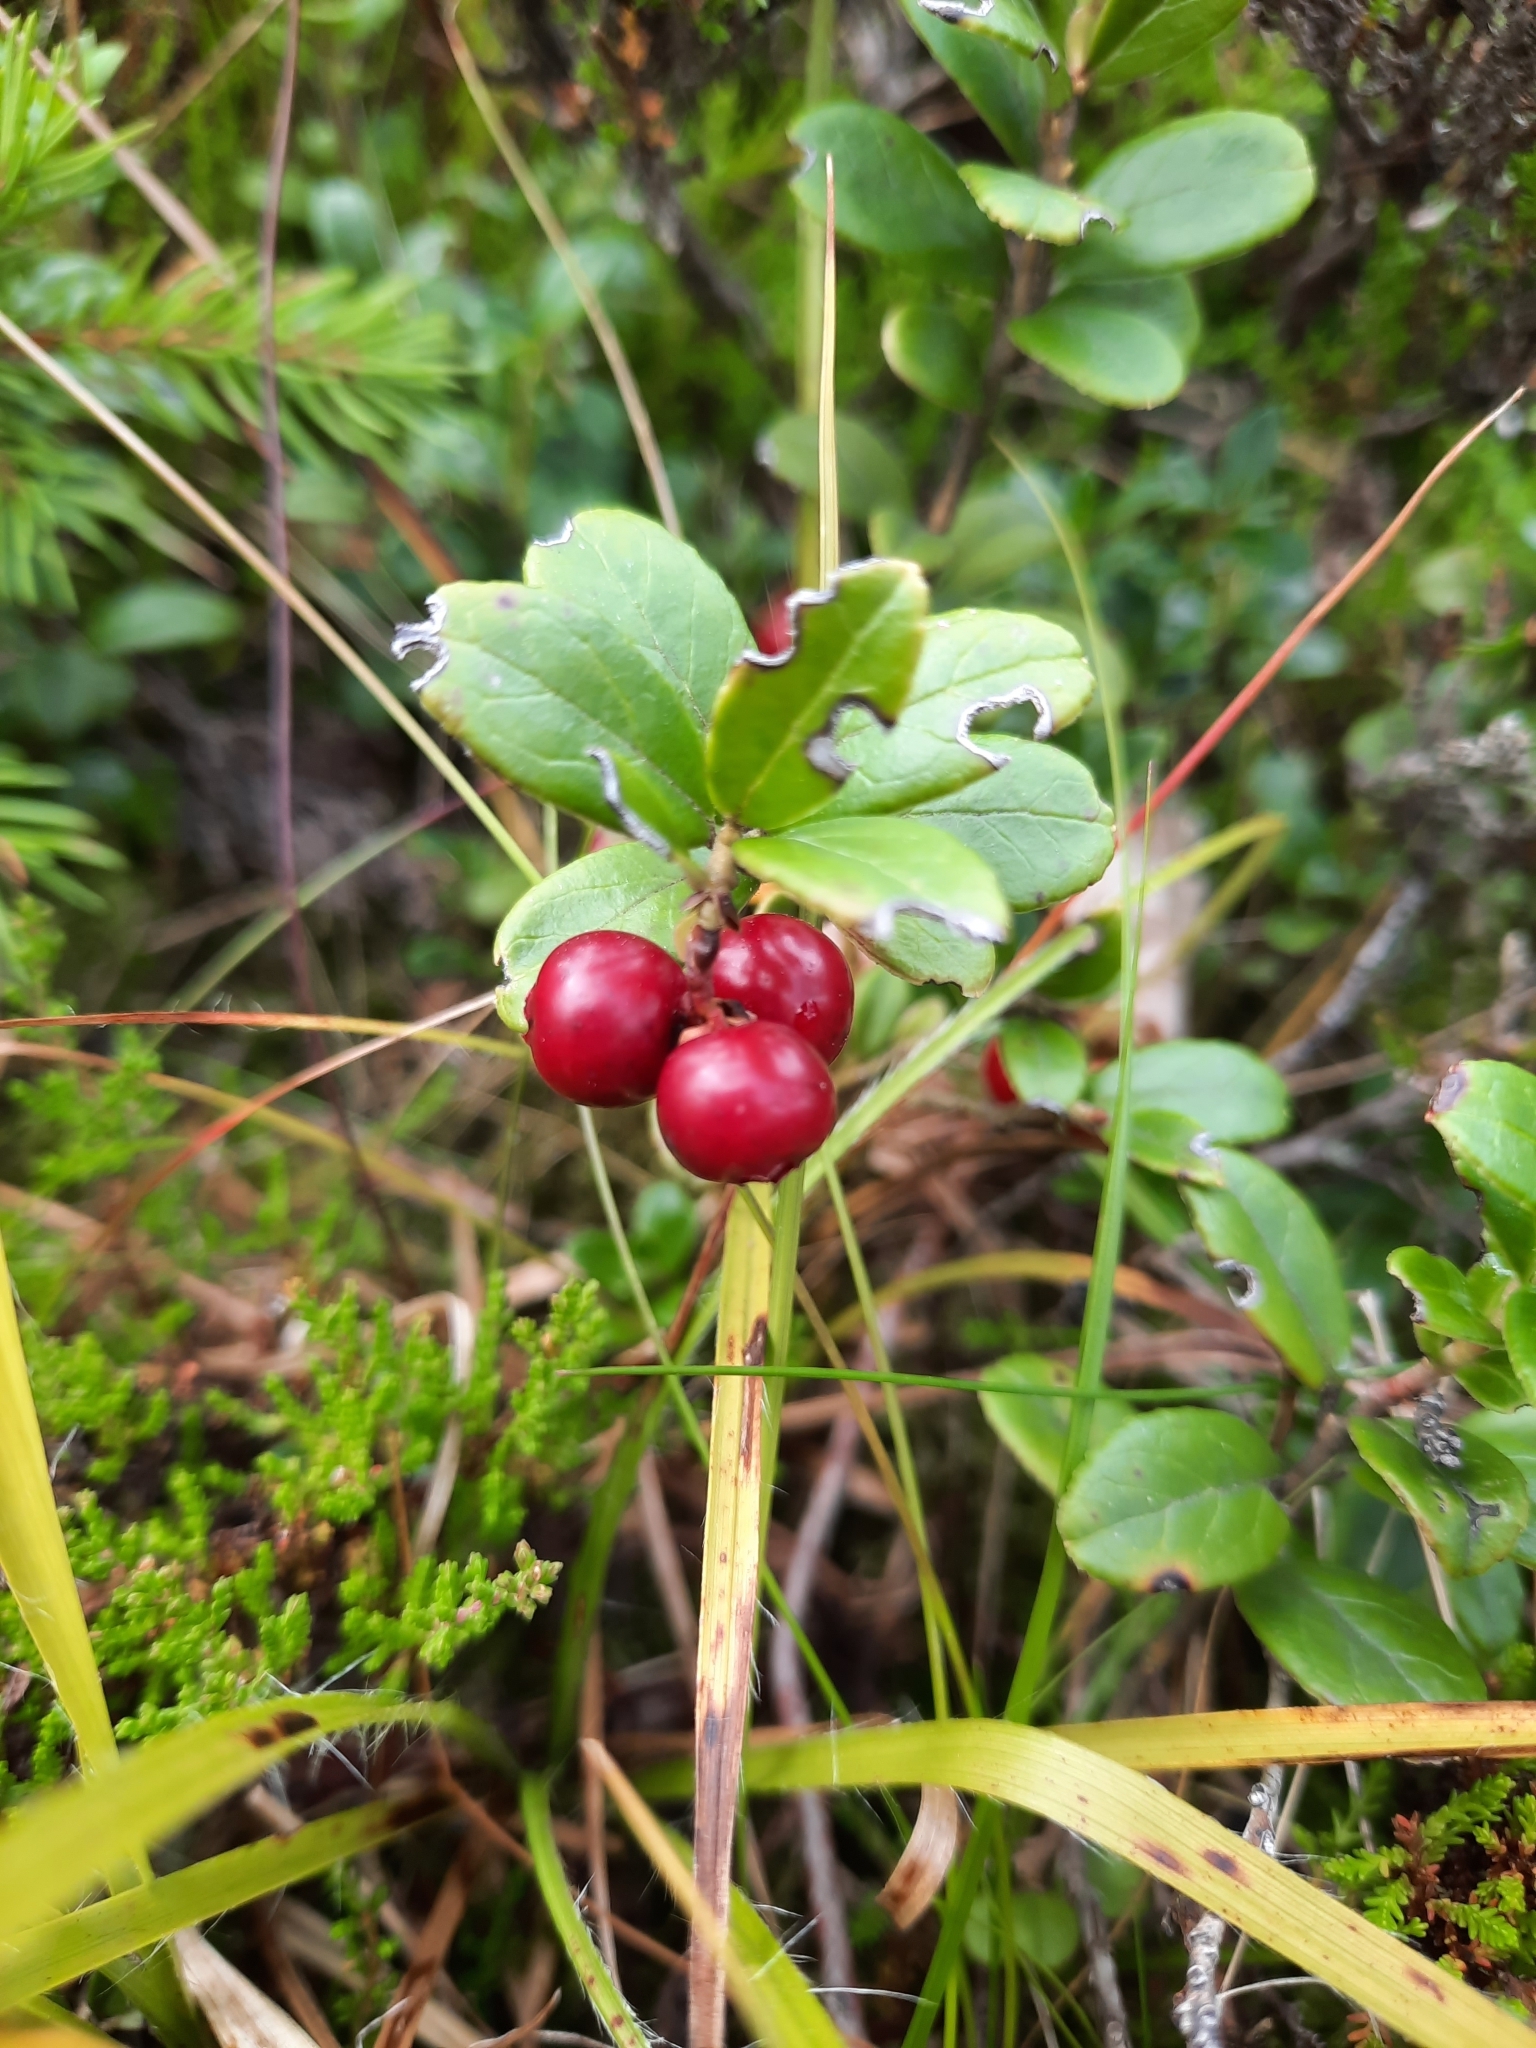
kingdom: Plantae
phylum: Tracheophyta
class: Magnoliopsida
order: Ericales
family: Ericaceae
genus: Vaccinium
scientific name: Vaccinium vitis-idaea
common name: Cowberry
